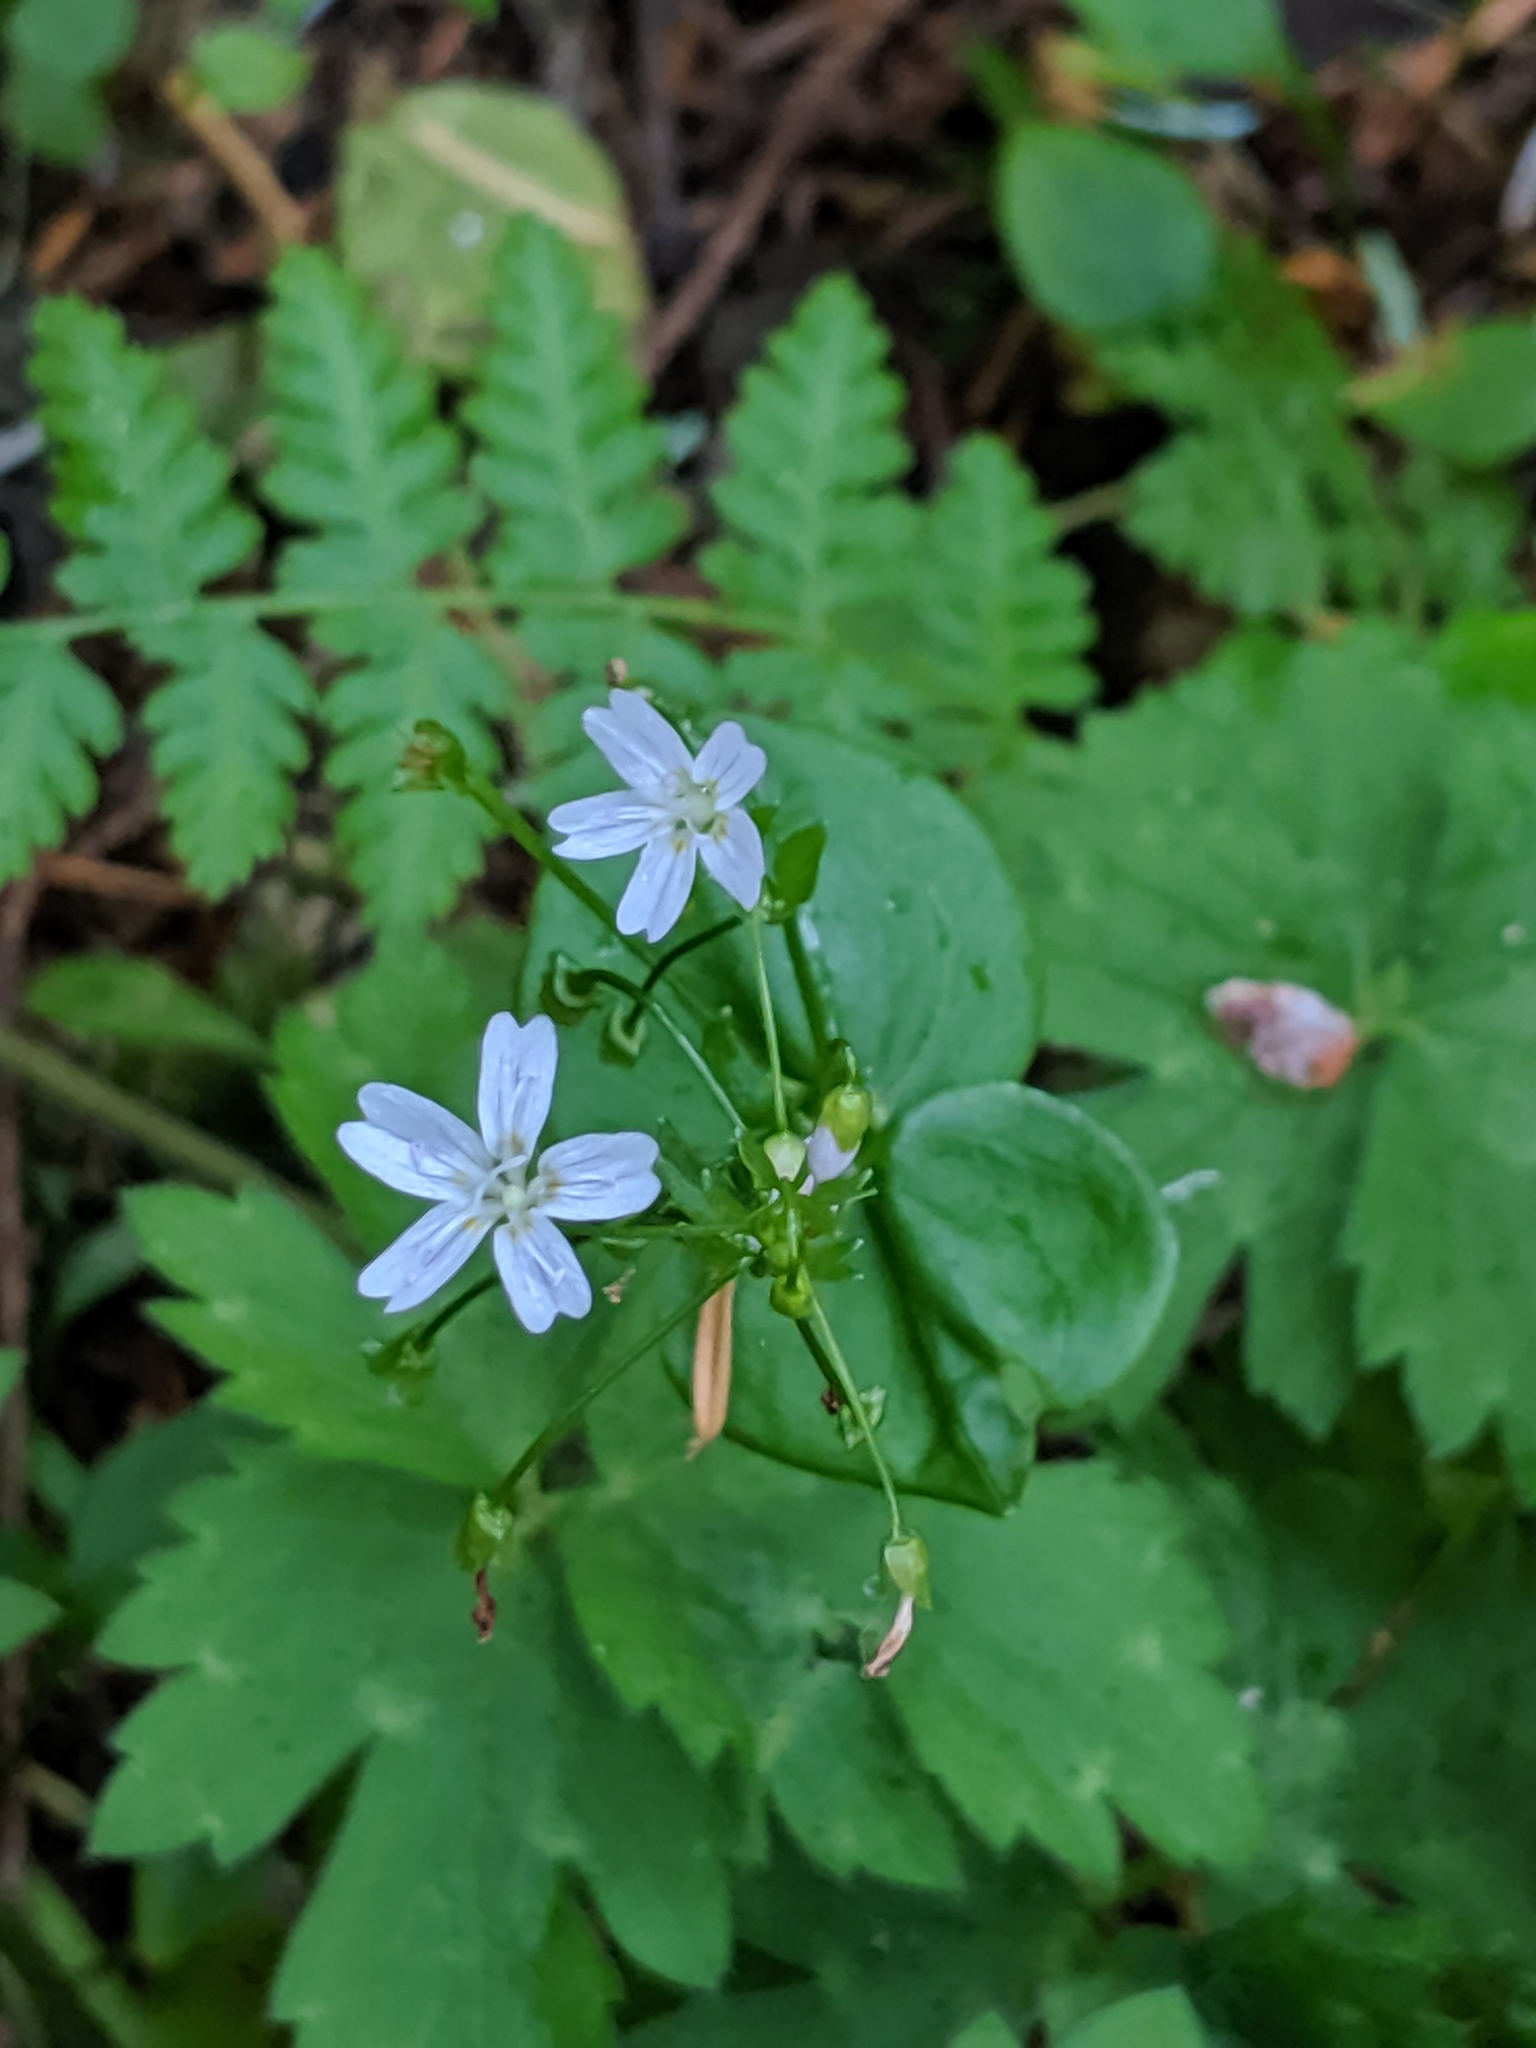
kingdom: Plantae
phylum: Tracheophyta
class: Magnoliopsida
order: Caryophyllales
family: Montiaceae
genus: Claytonia
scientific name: Claytonia sibirica
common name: Pink purslane
